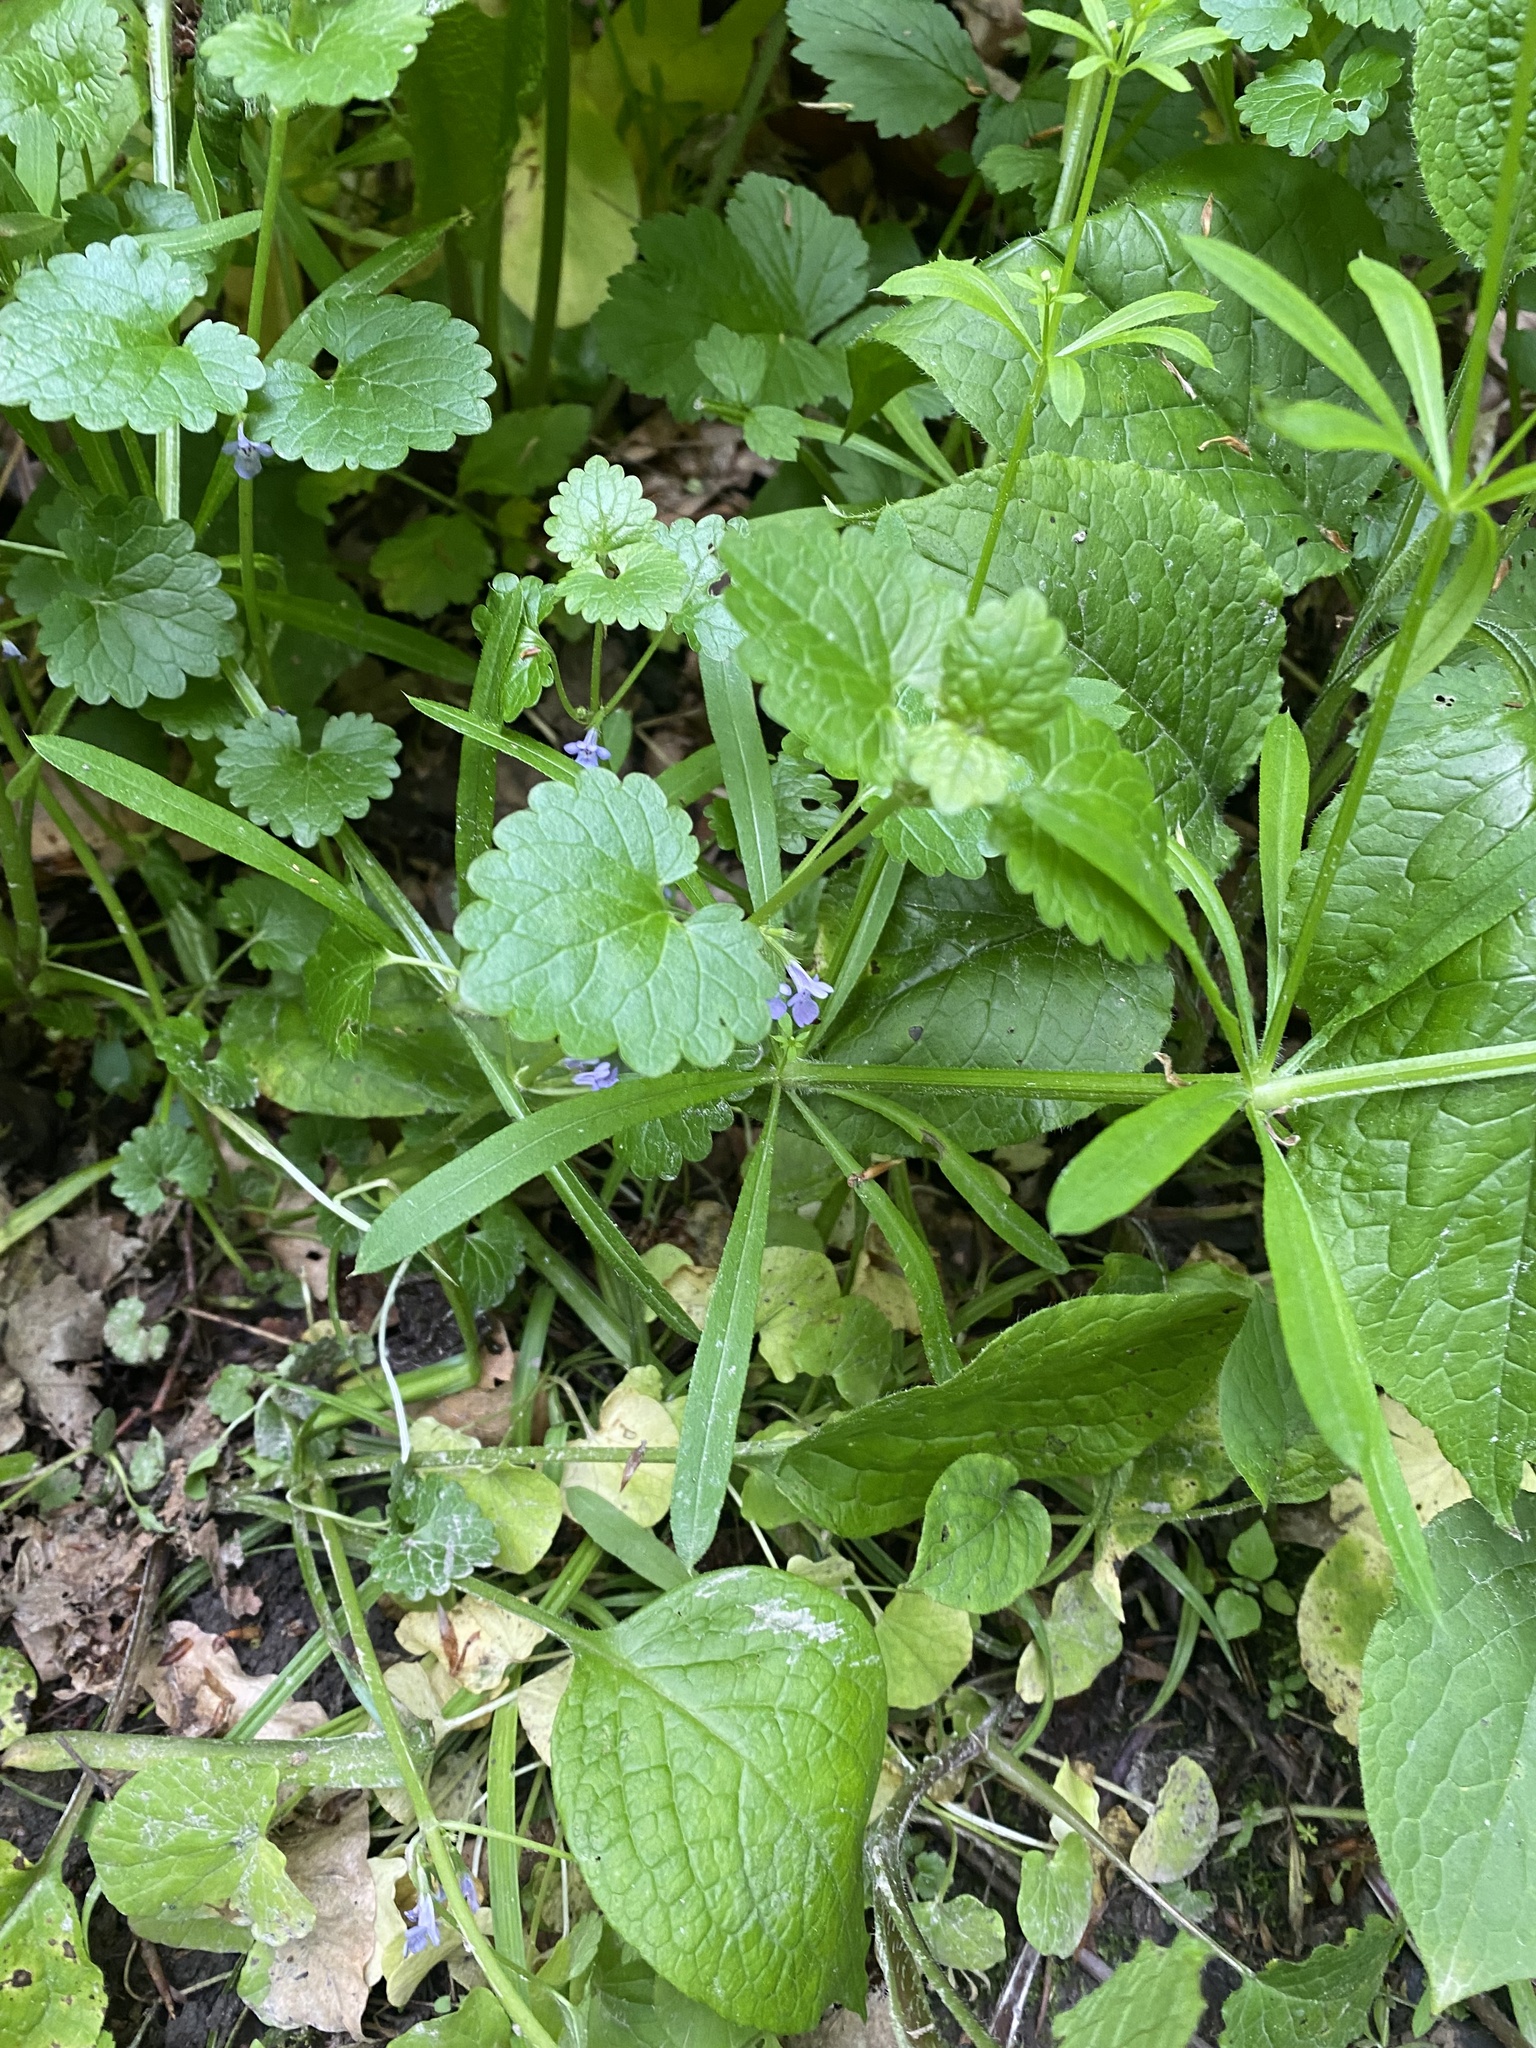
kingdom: Plantae
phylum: Tracheophyta
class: Magnoliopsida
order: Lamiales
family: Lamiaceae
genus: Glechoma
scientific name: Glechoma hederacea
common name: Ground ivy
